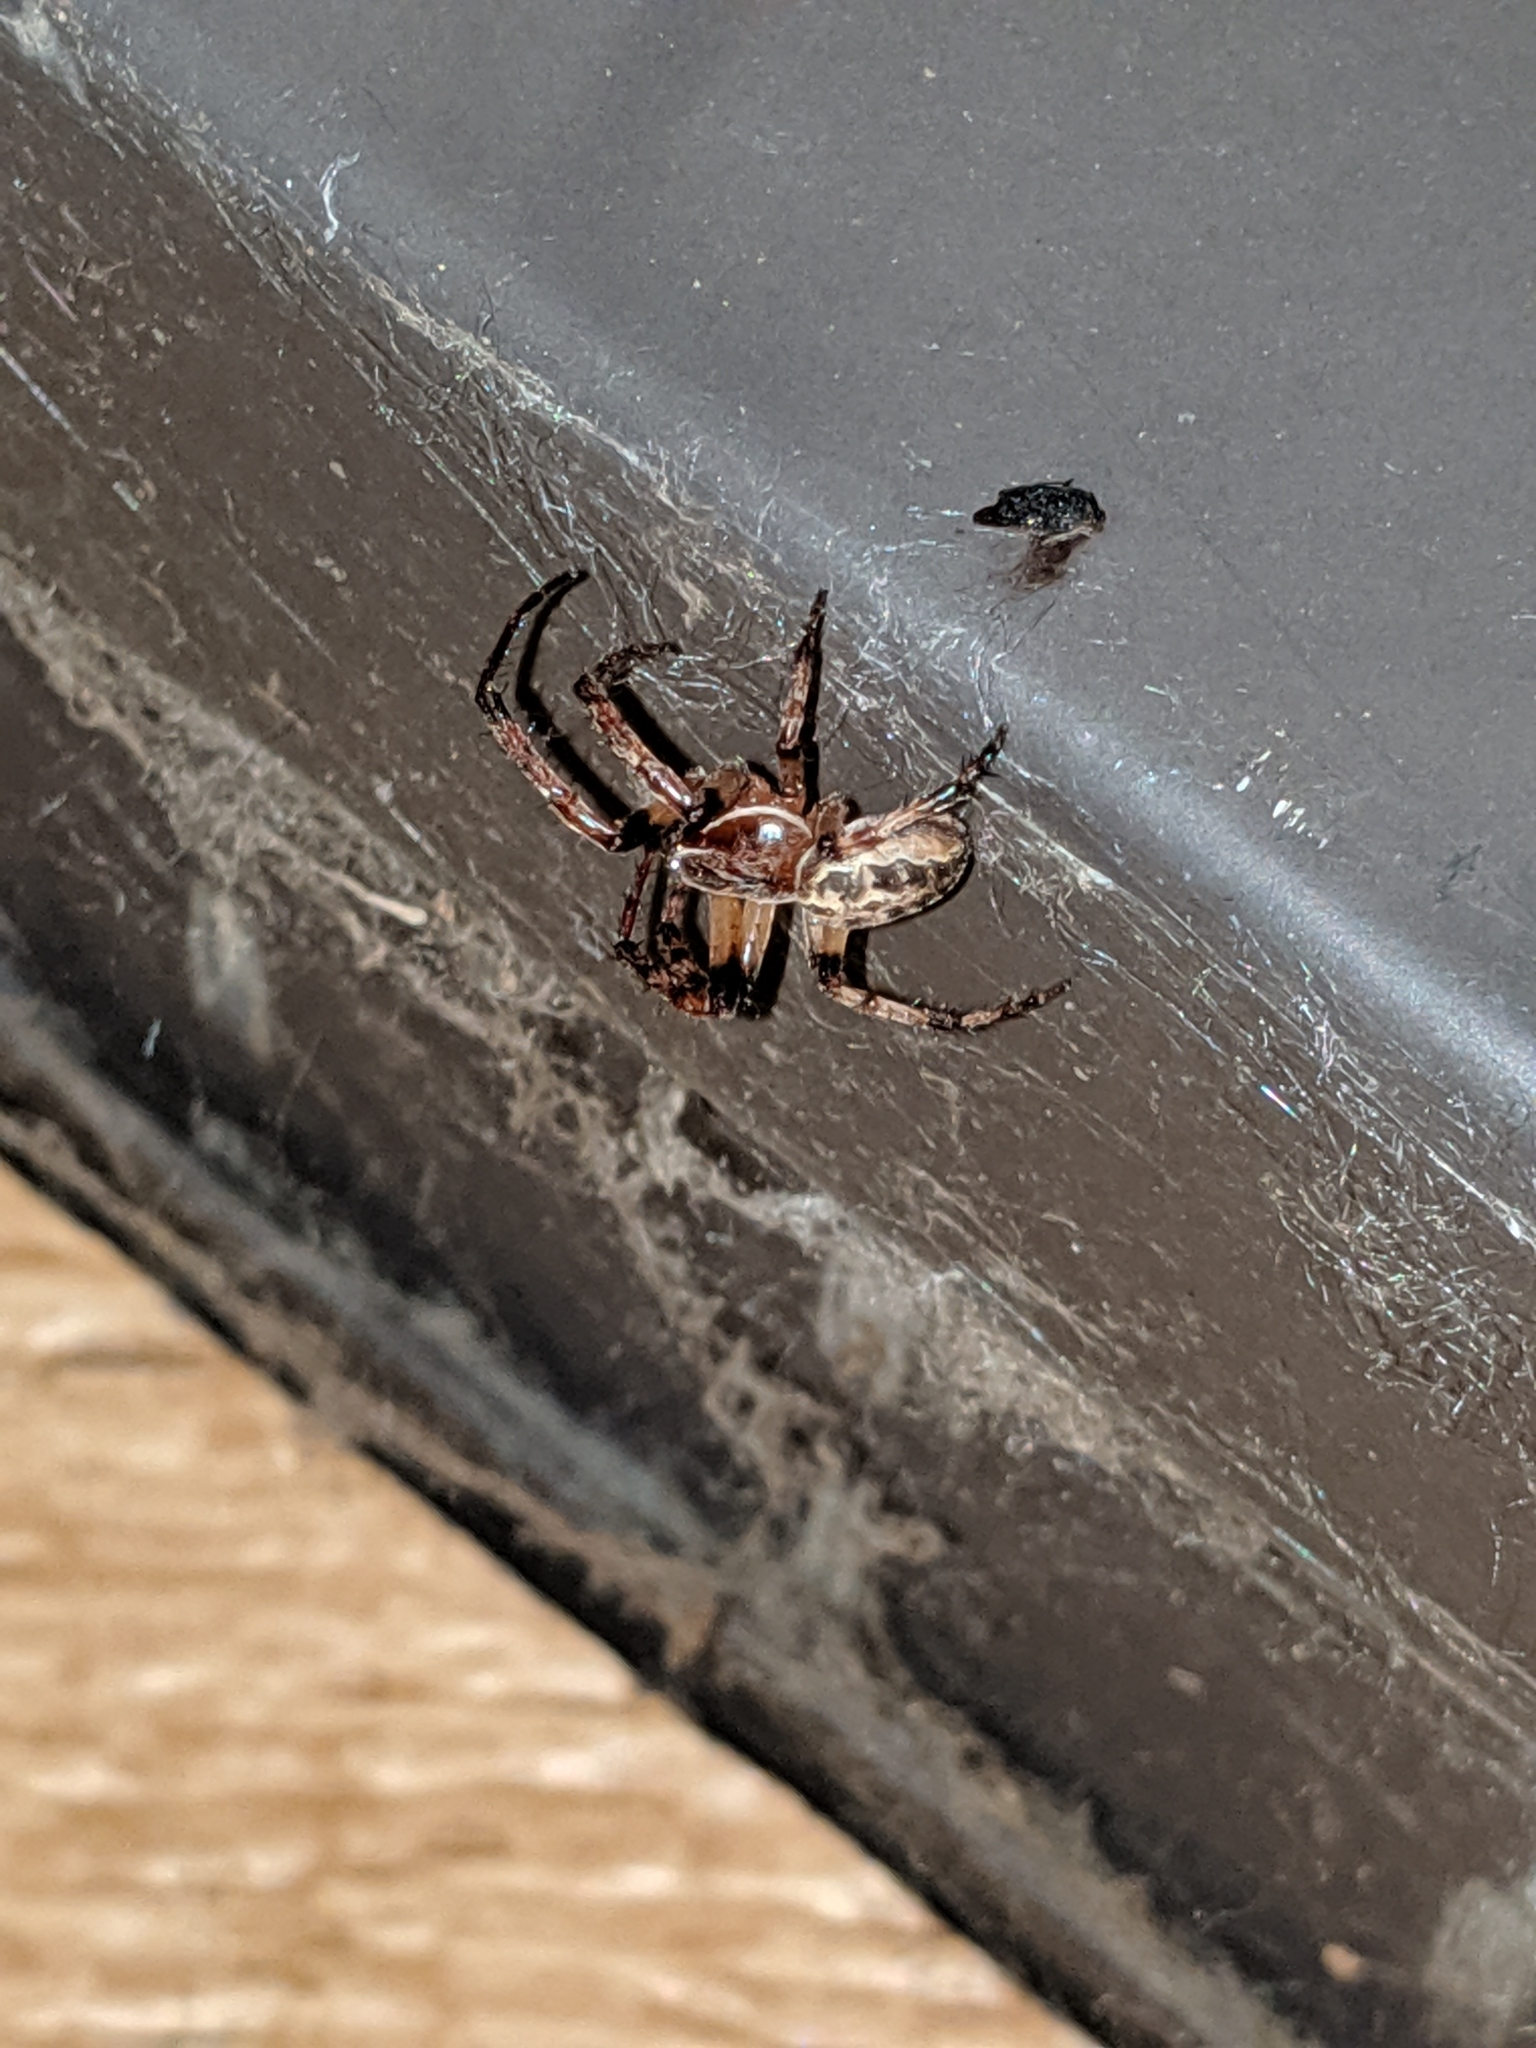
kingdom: Animalia
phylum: Arthropoda
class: Arachnida
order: Araneae
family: Araneidae
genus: Larinioides
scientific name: Larinioides sclopetarius
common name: Bridge orbweaver
